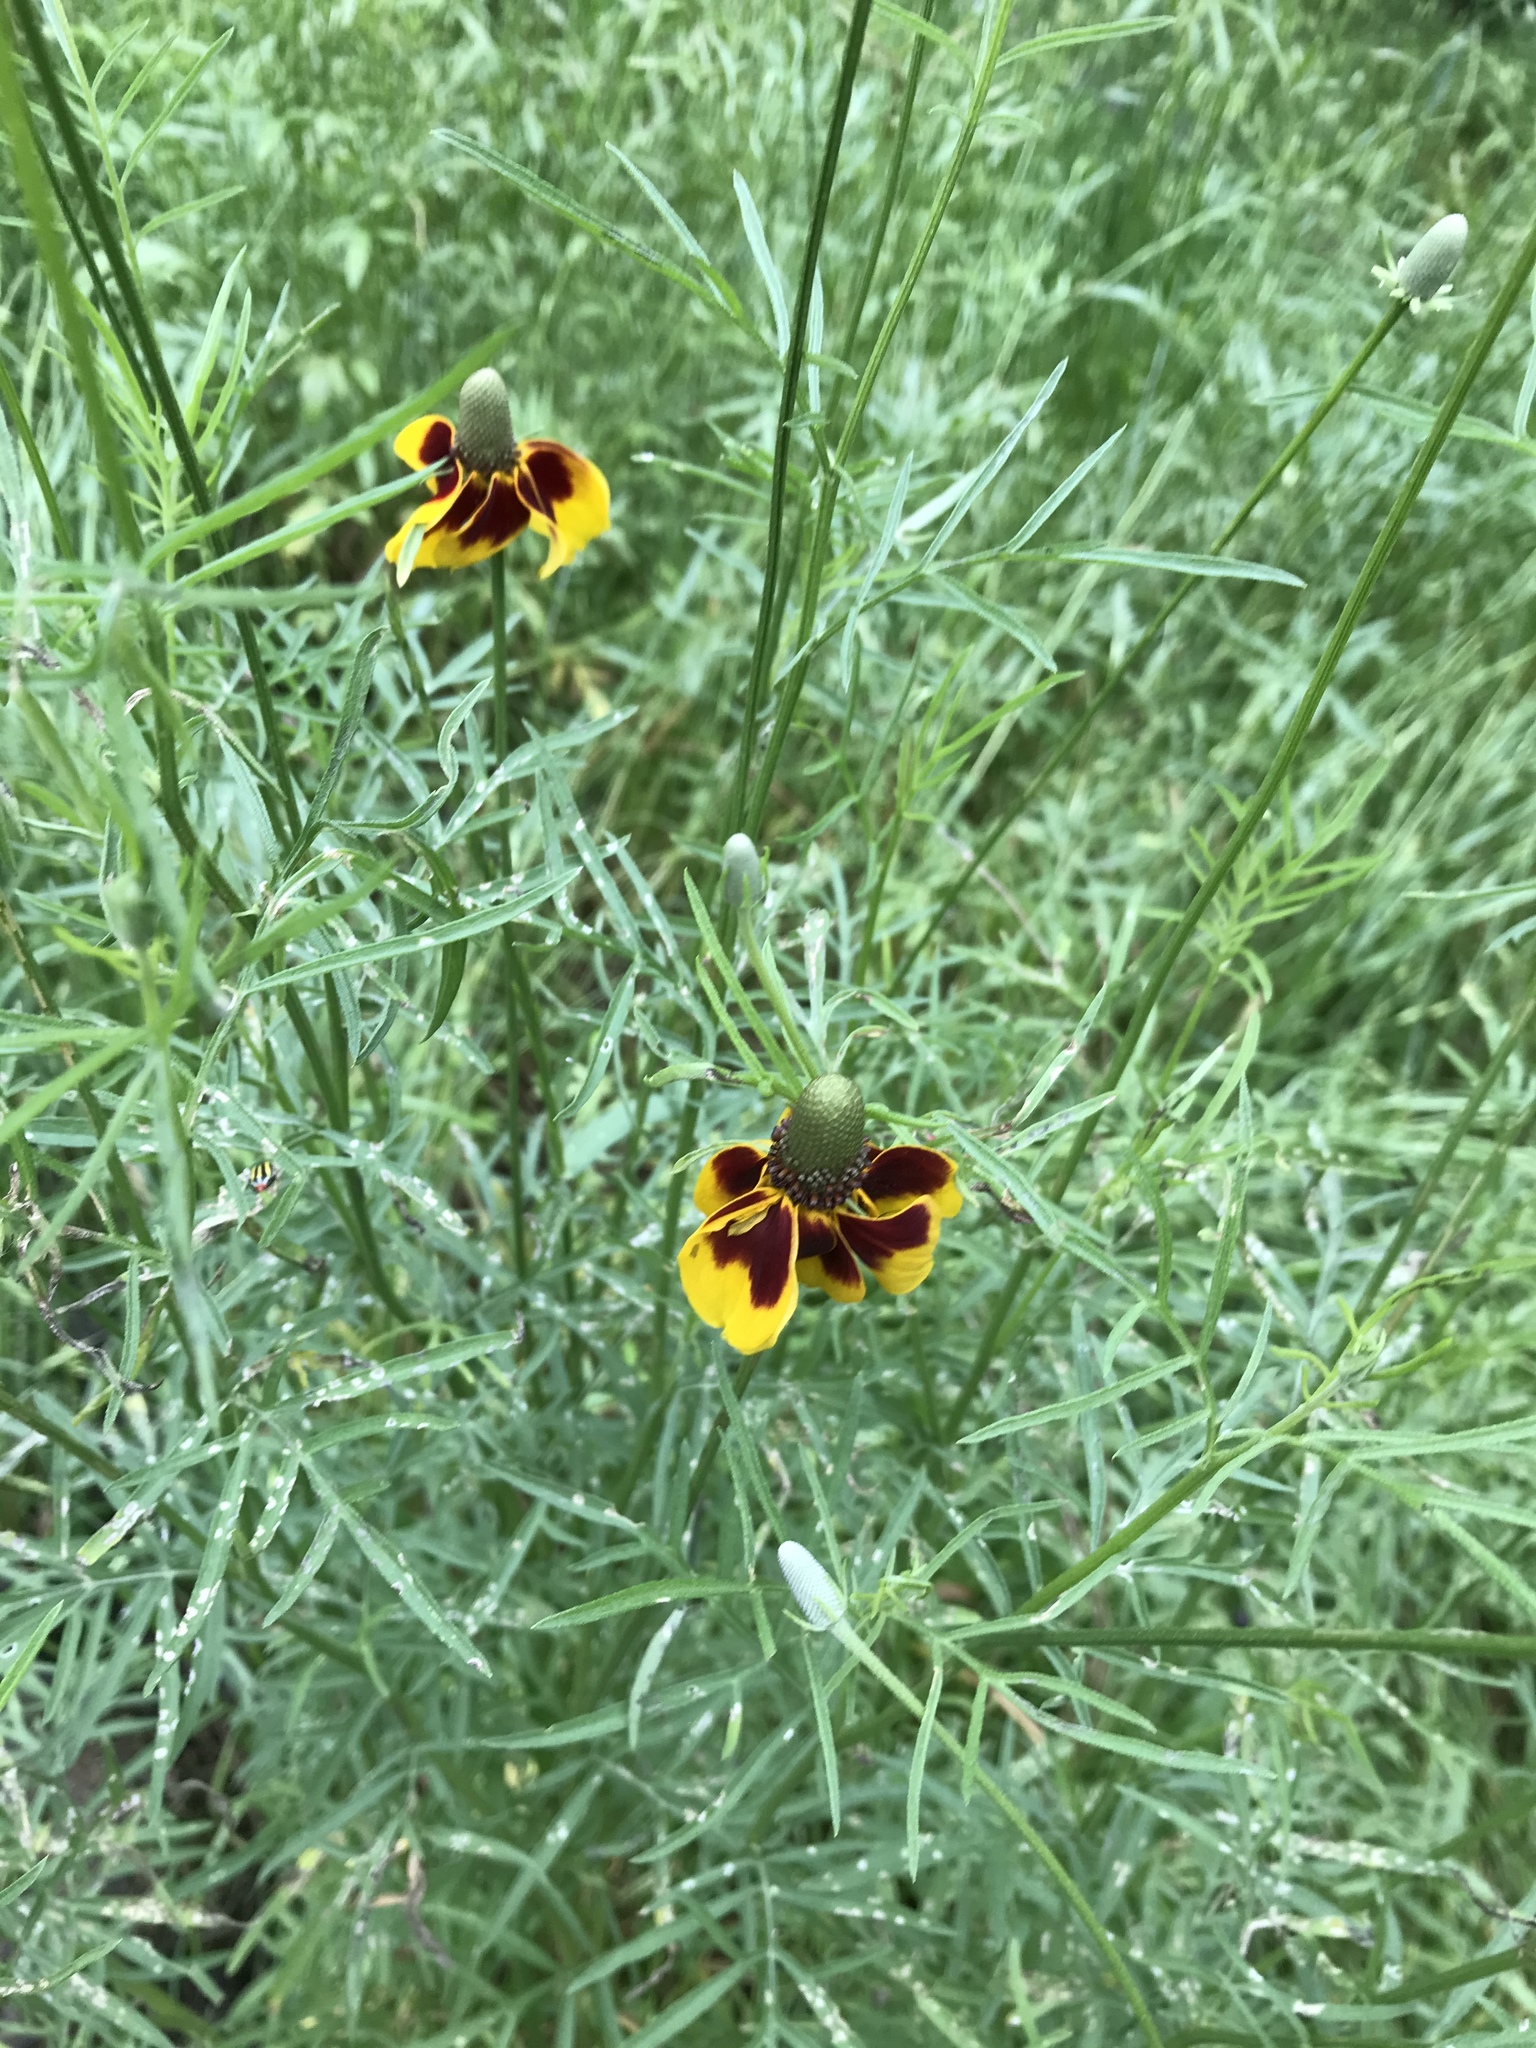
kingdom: Plantae
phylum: Tracheophyta
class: Magnoliopsida
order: Asterales
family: Asteraceae
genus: Ratibida
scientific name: Ratibida columnifera
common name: Prairie coneflower
